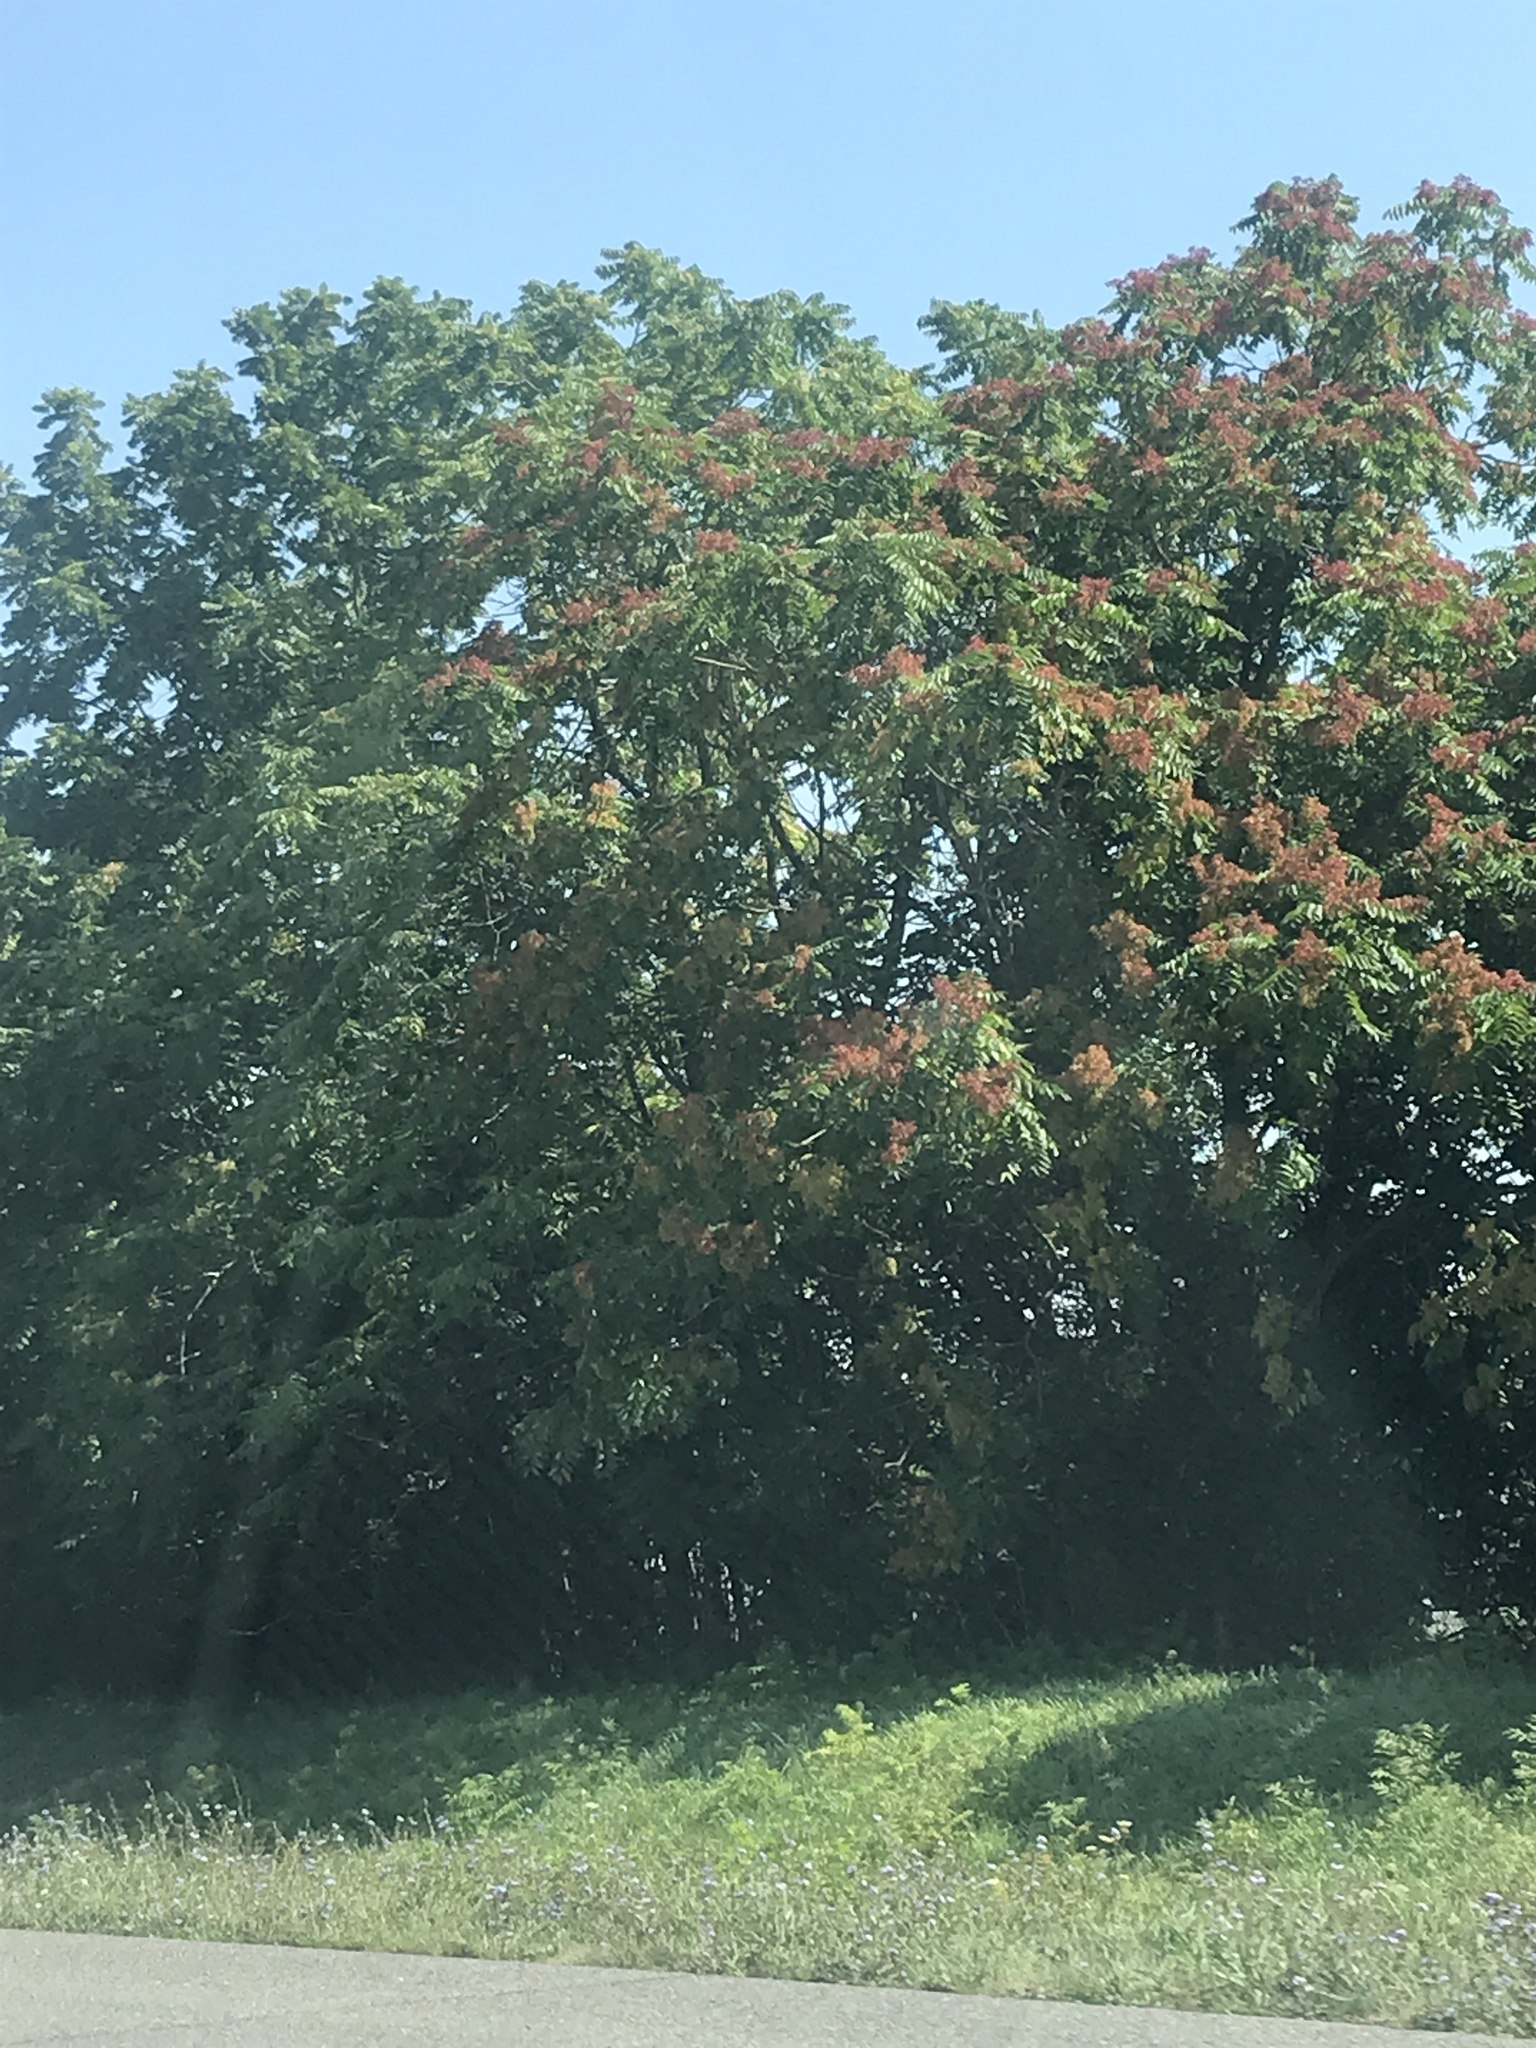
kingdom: Plantae
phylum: Tracheophyta
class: Magnoliopsida
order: Sapindales
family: Simaroubaceae
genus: Ailanthus
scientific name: Ailanthus altissima
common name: Tree-of-heaven
